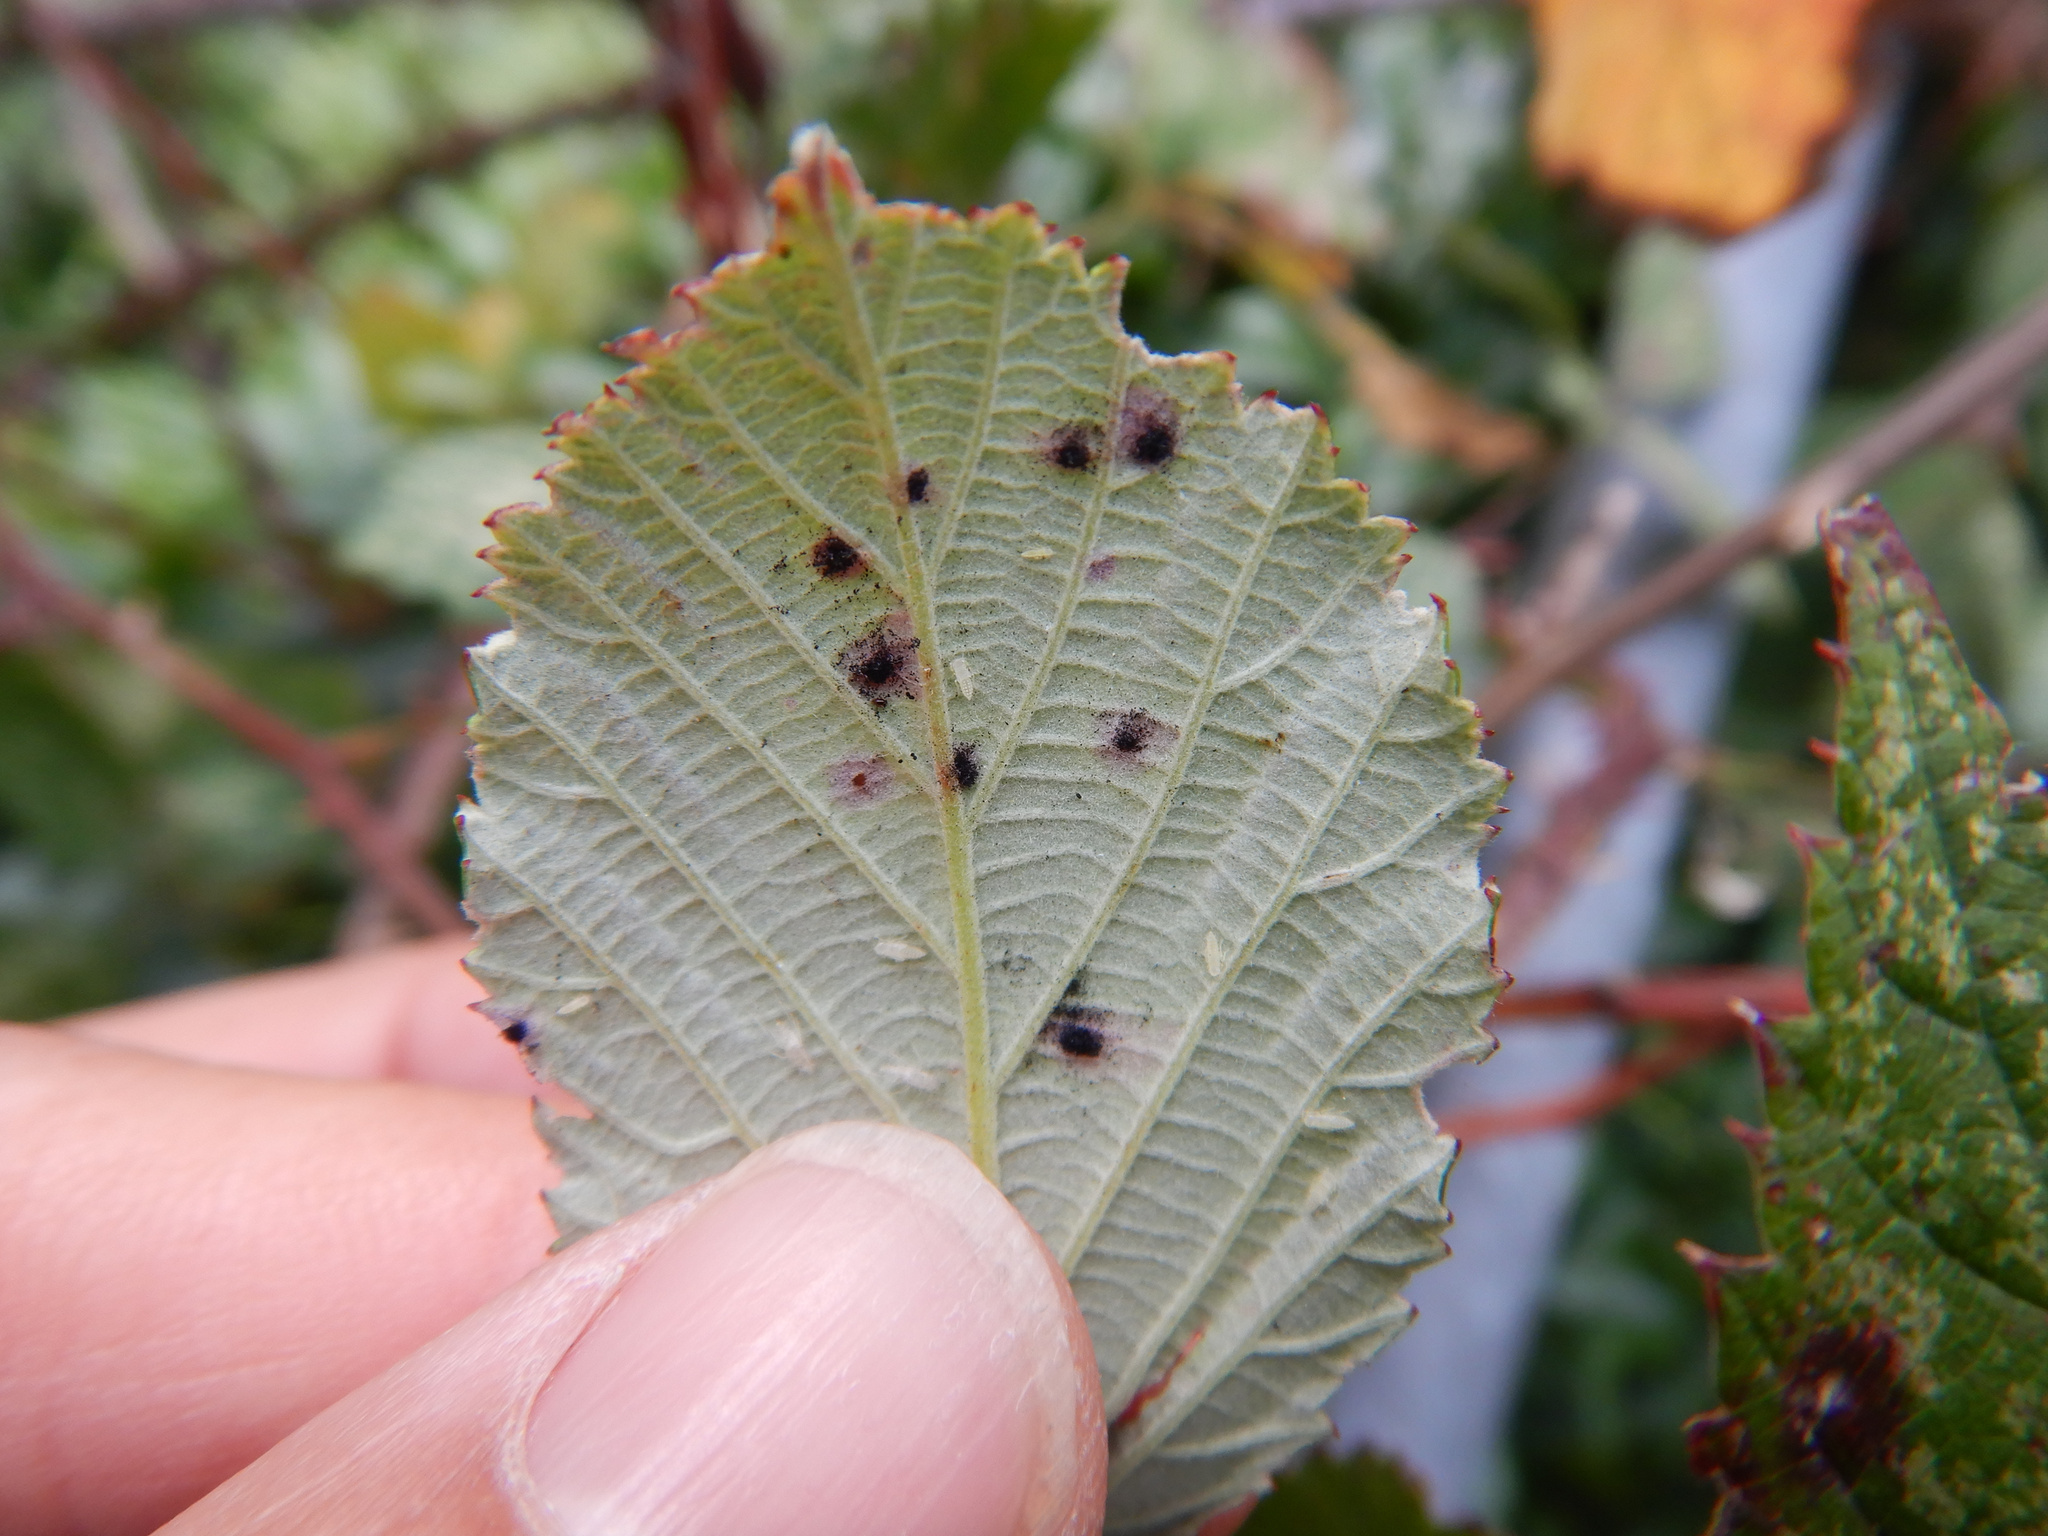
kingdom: Fungi
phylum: Basidiomycota
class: Pucciniomycetes
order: Pucciniales
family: Phragmidiaceae
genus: Phragmidium
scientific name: Phragmidium violaceum
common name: Violet bramble rust
